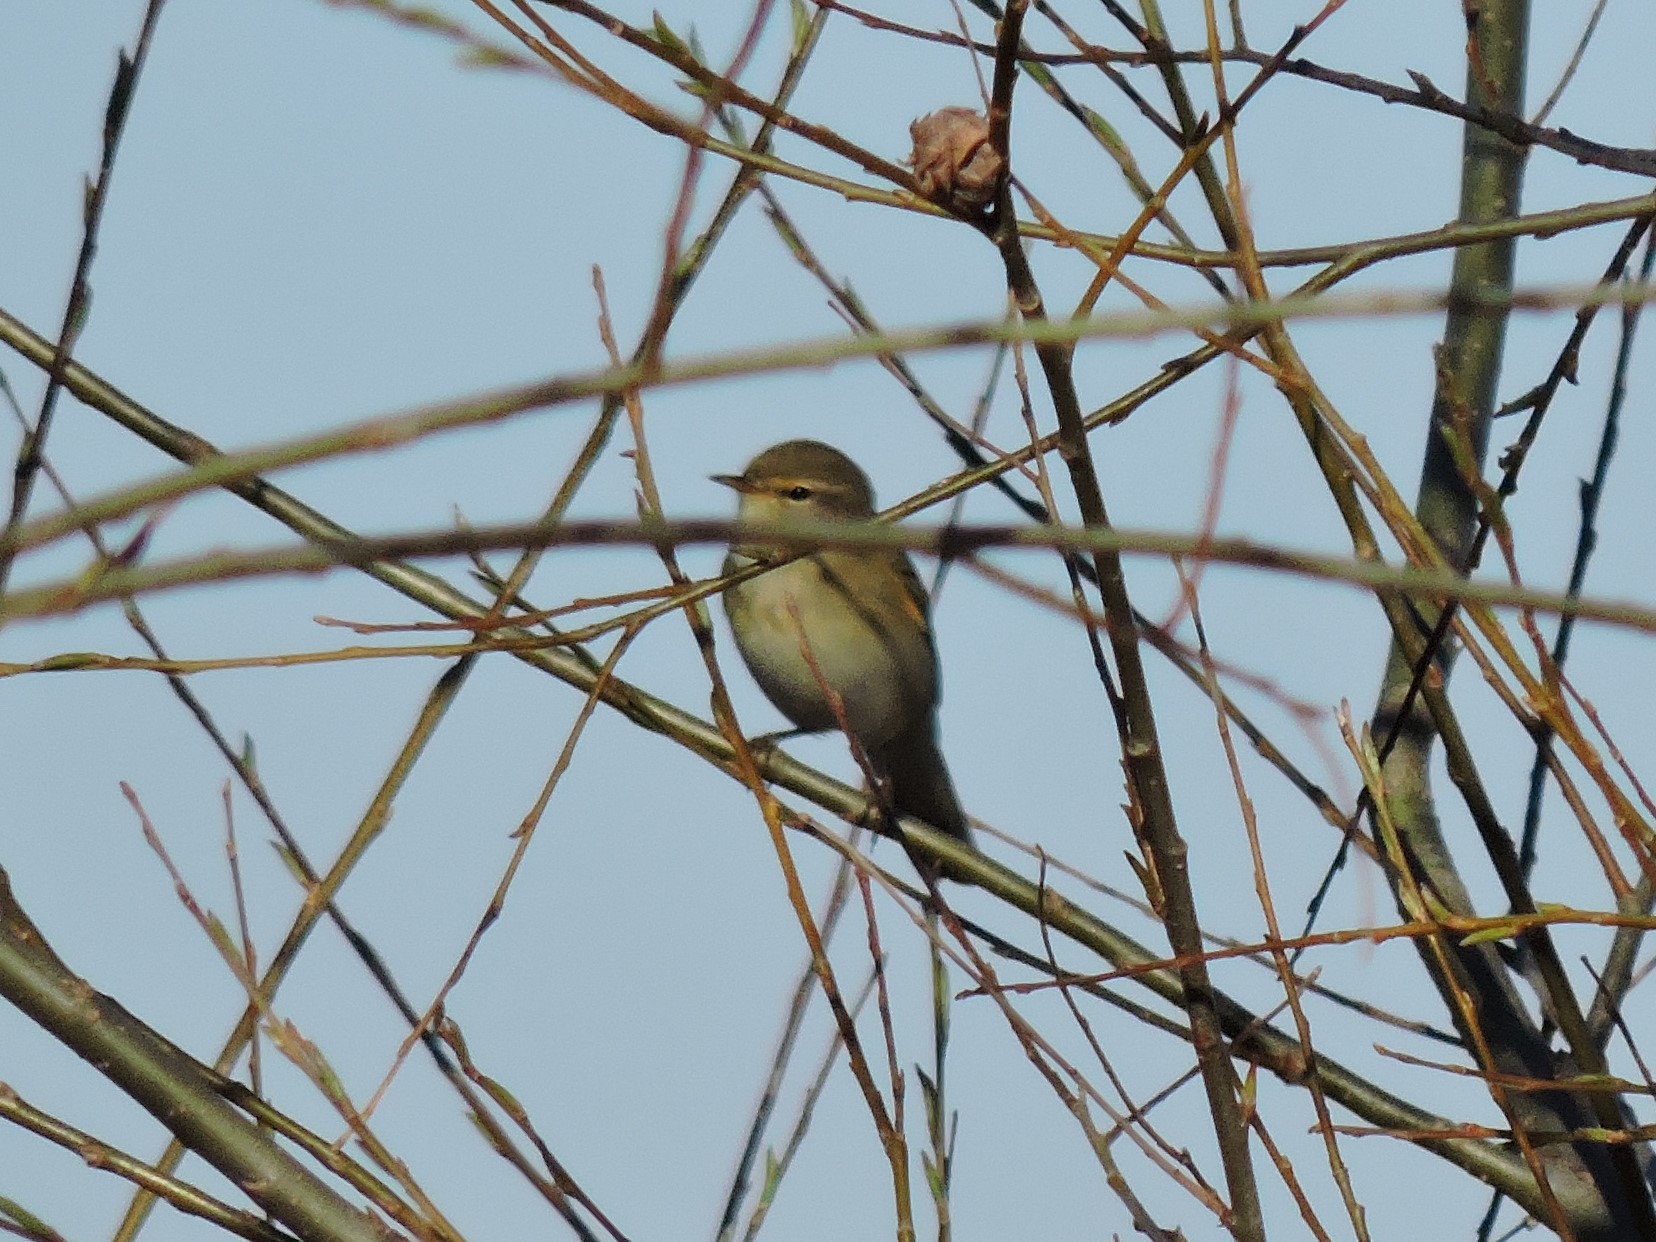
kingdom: Animalia
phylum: Chordata
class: Aves
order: Passeriformes
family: Phylloscopidae
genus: Phylloscopus
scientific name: Phylloscopus trochilus
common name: Willow warbler
